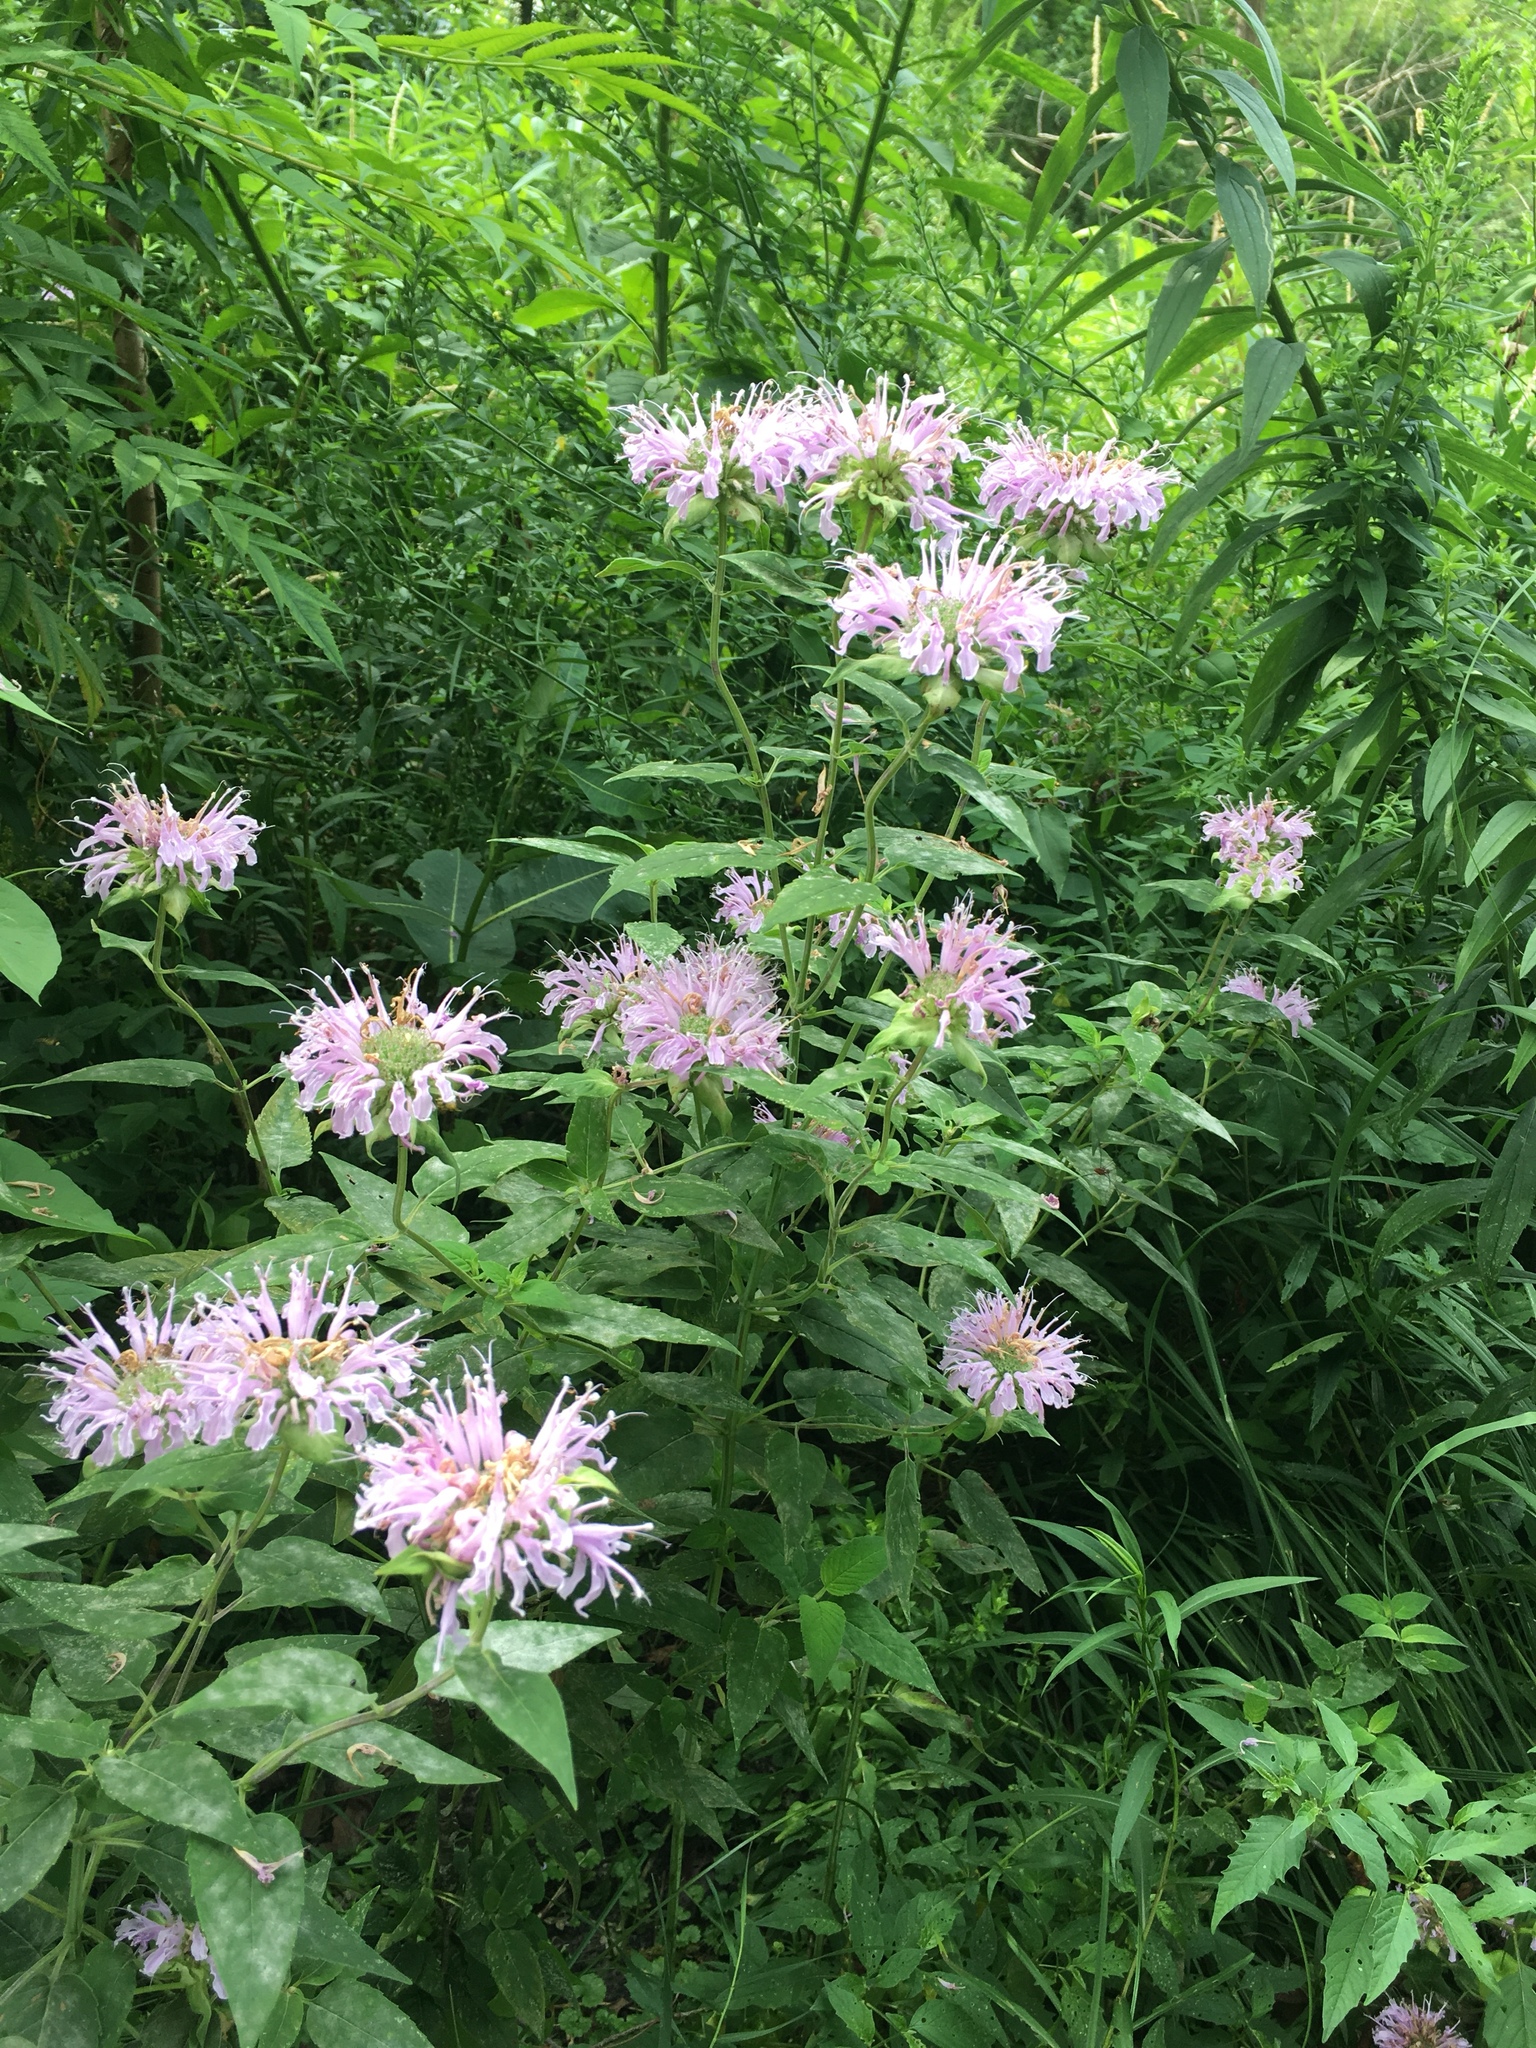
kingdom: Plantae
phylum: Tracheophyta
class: Magnoliopsida
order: Lamiales
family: Lamiaceae
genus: Monarda
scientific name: Monarda fistulosa
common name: Purple beebalm
